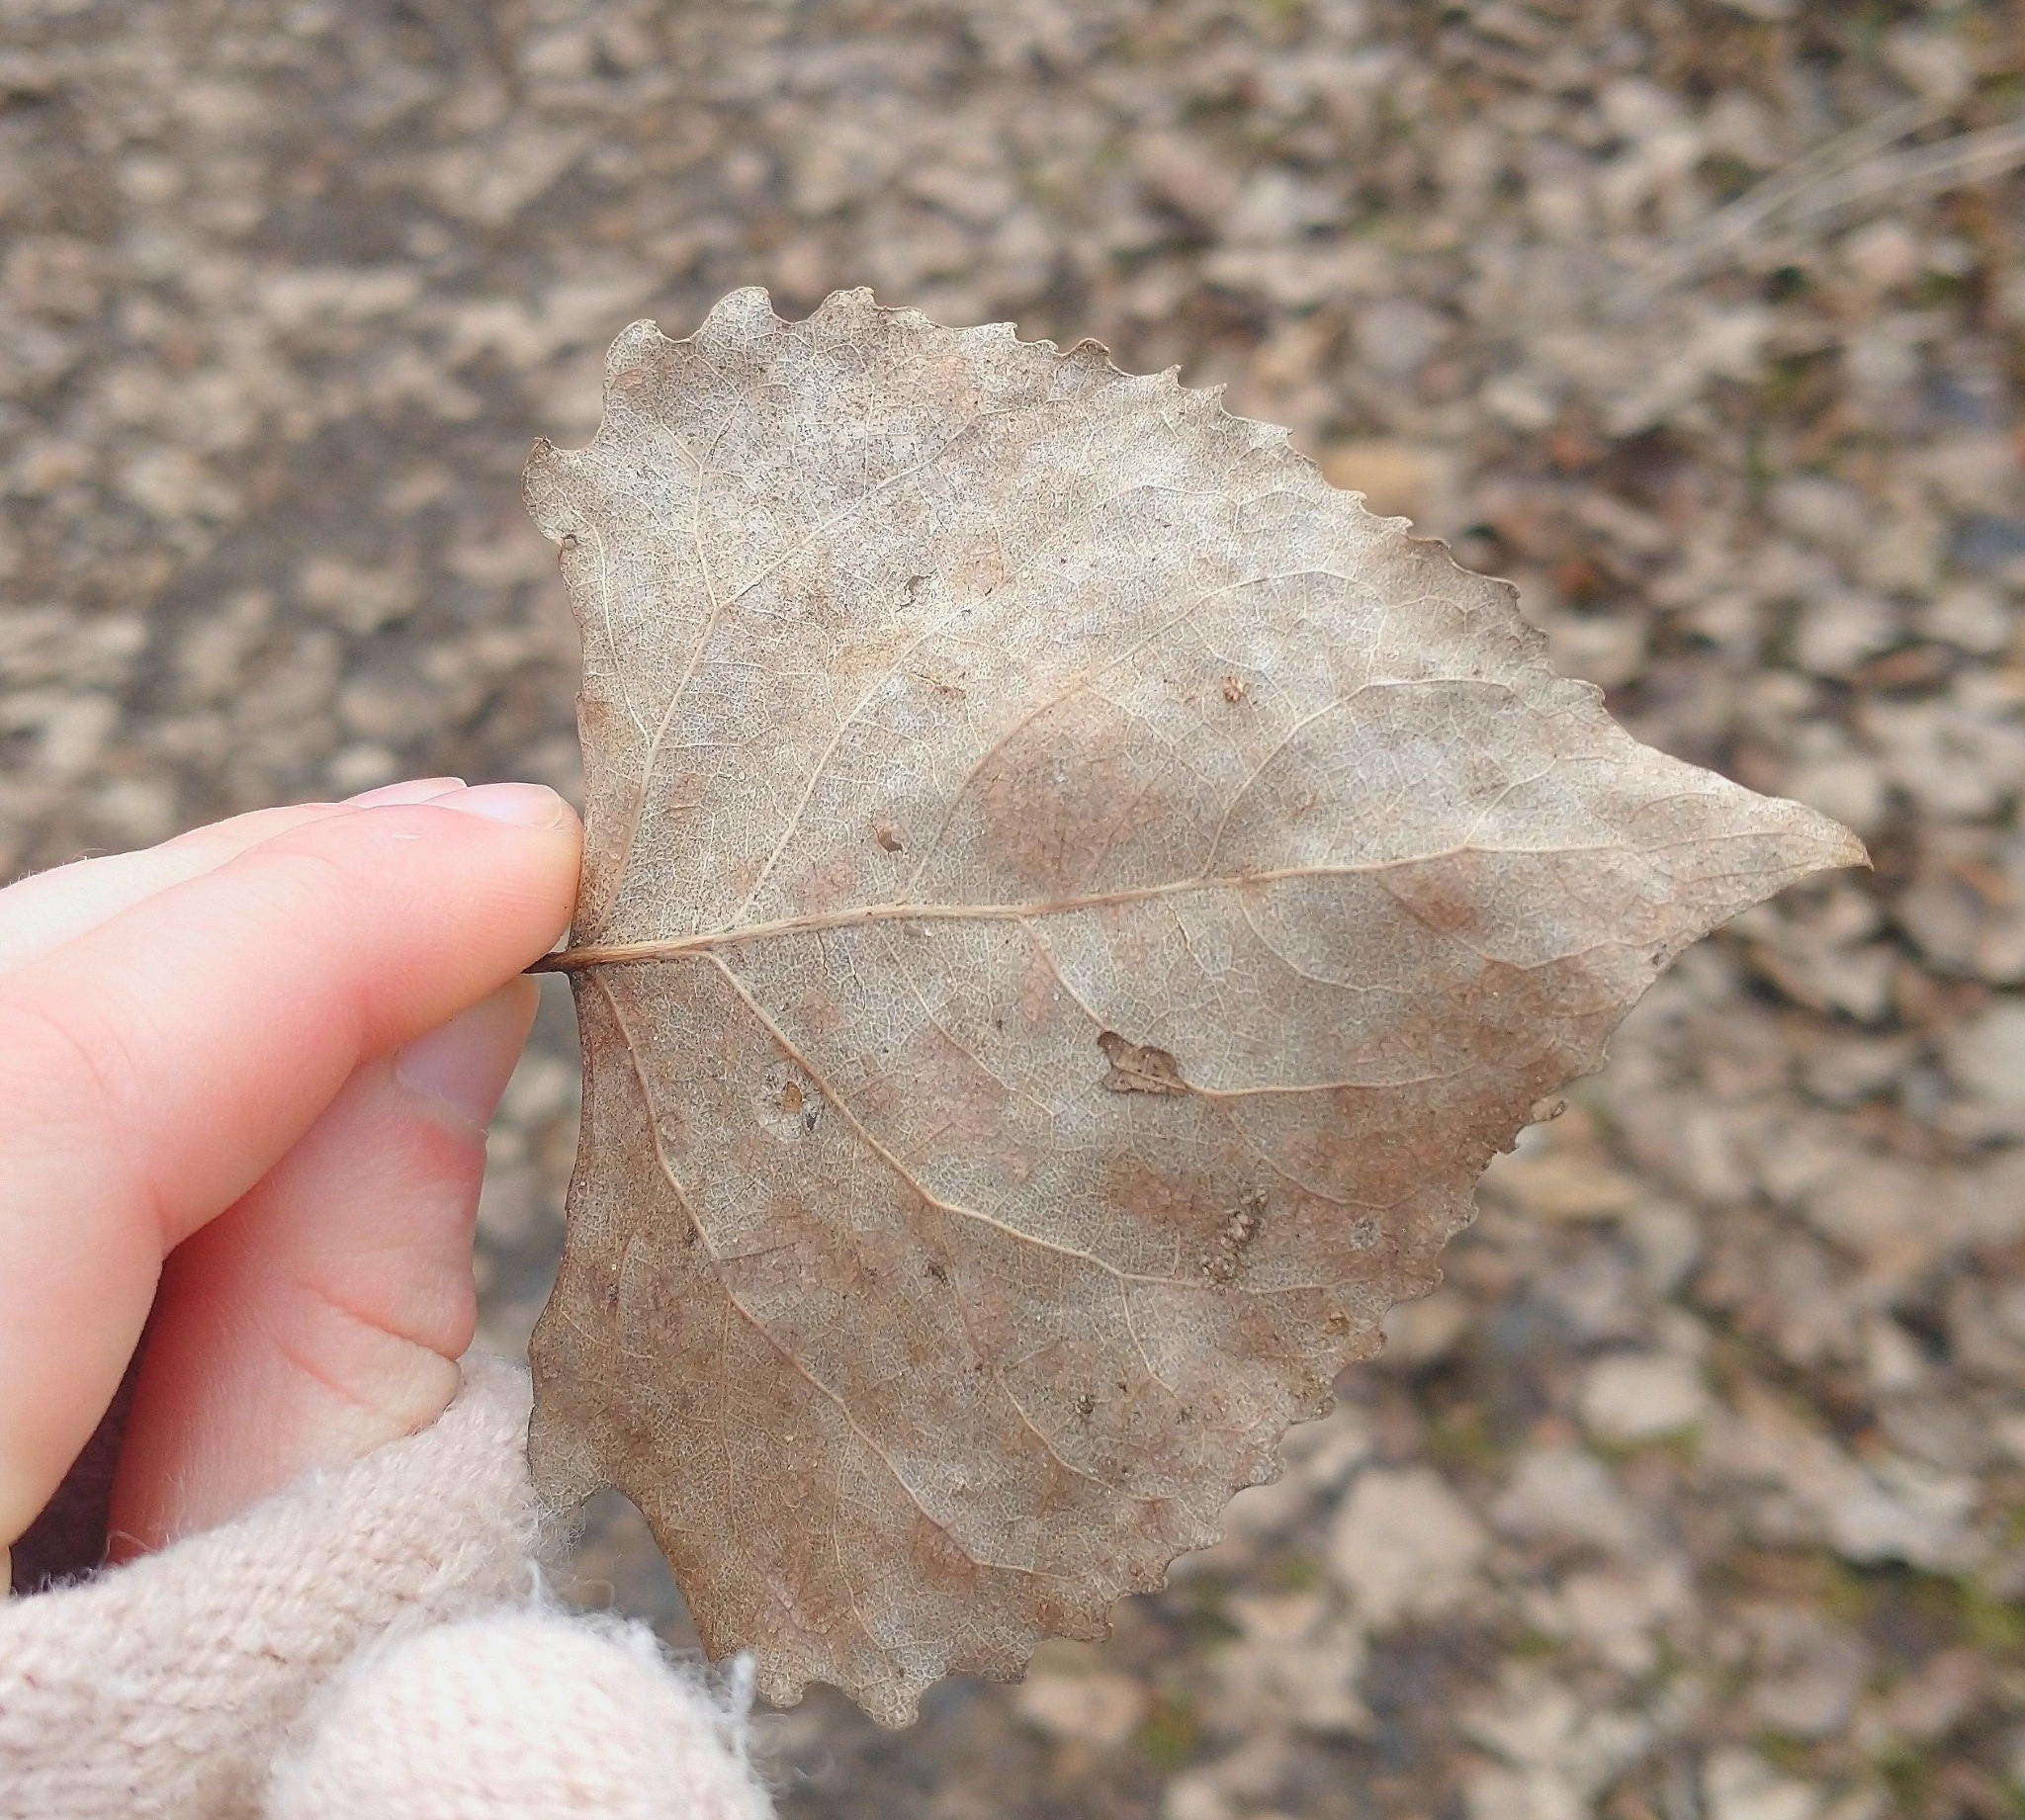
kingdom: Plantae
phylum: Tracheophyta
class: Magnoliopsida
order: Malpighiales
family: Salicaceae
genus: Populus
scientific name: Populus deltoides
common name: Eastern cottonwood
